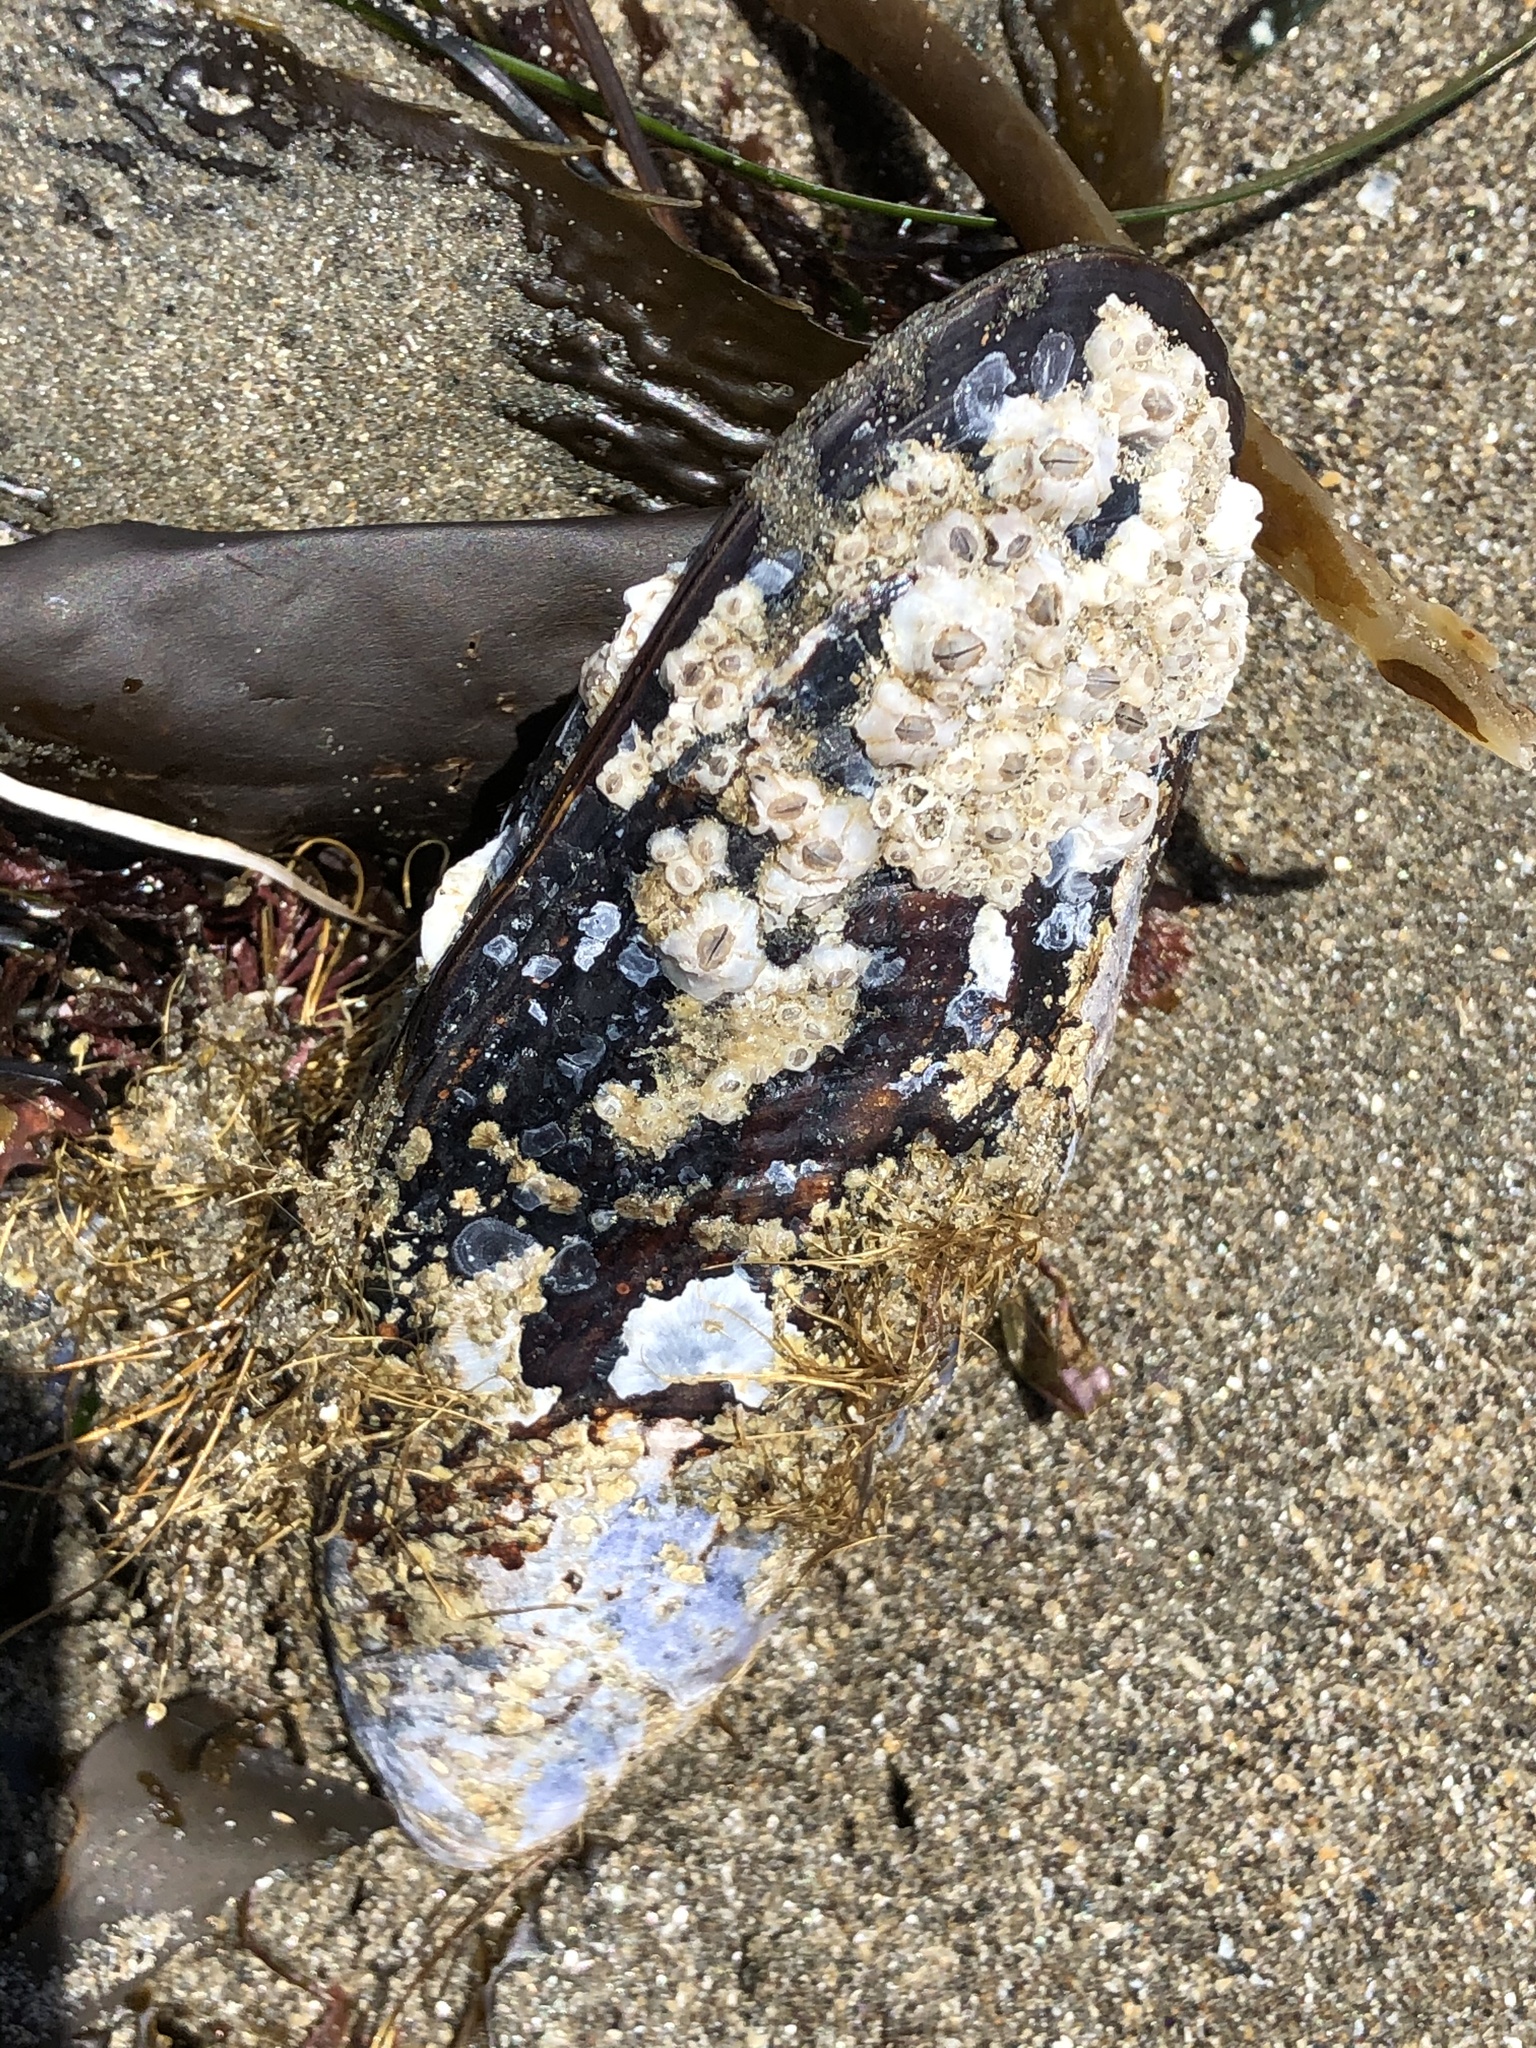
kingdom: Animalia
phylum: Mollusca
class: Bivalvia
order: Mytilida
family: Mytilidae
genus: Mytilus
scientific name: Mytilus californianus
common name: California mussel
